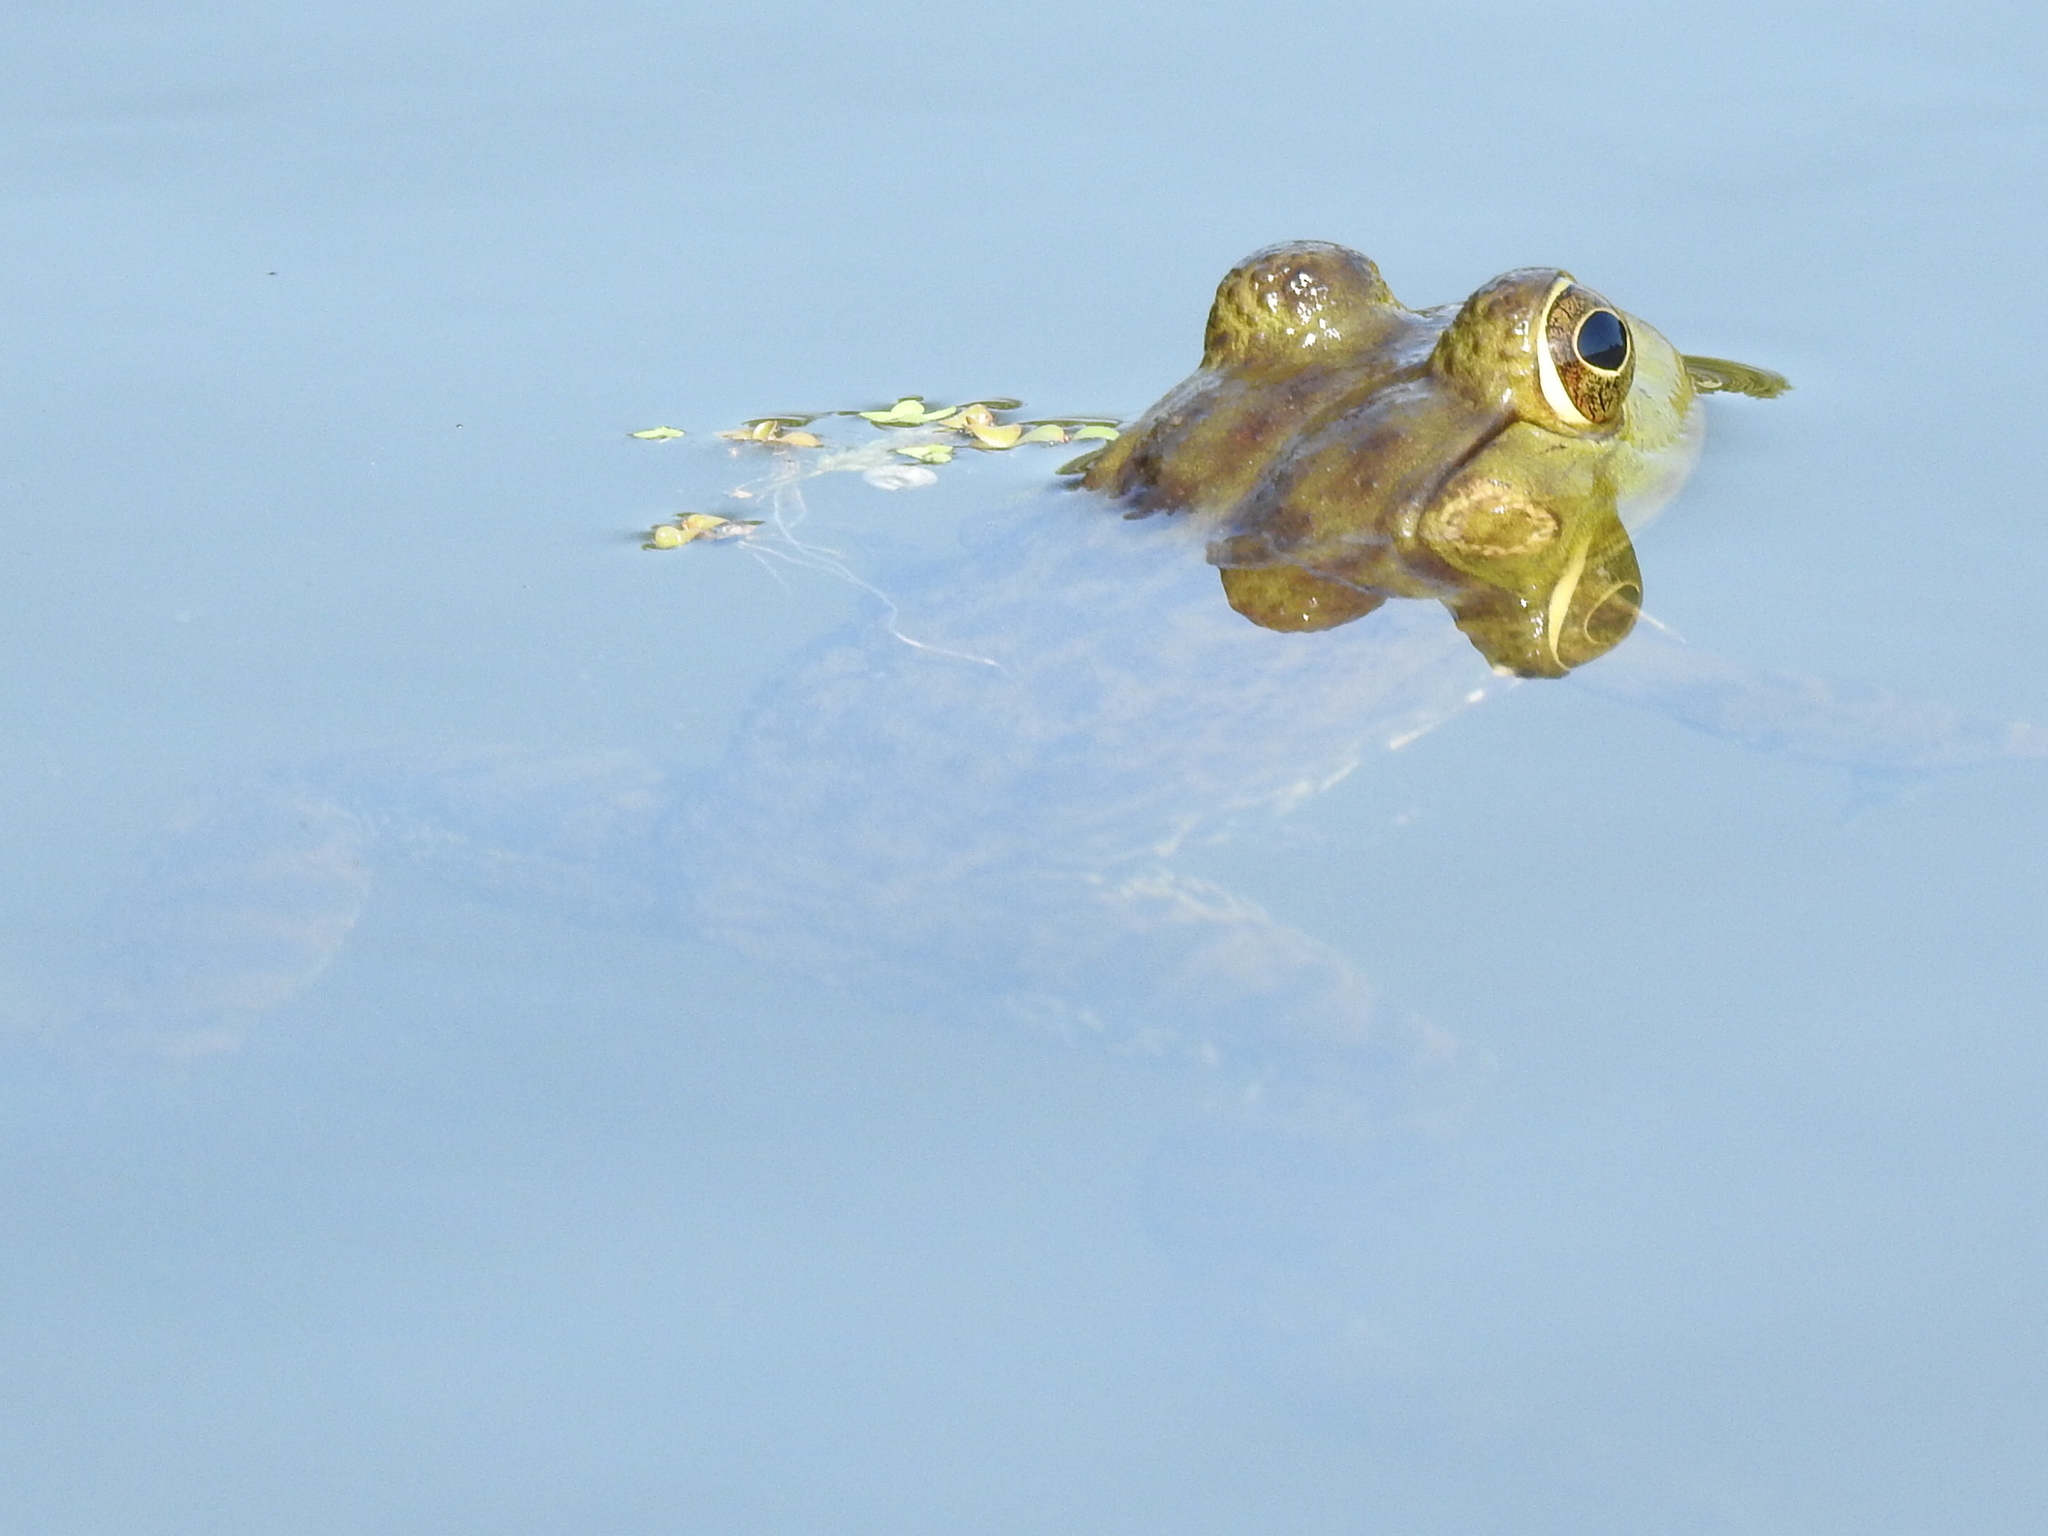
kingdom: Animalia
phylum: Chordata
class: Amphibia
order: Anura
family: Ranidae
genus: Lithobates
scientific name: Lithobates catesbeianus
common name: American bullfrog
